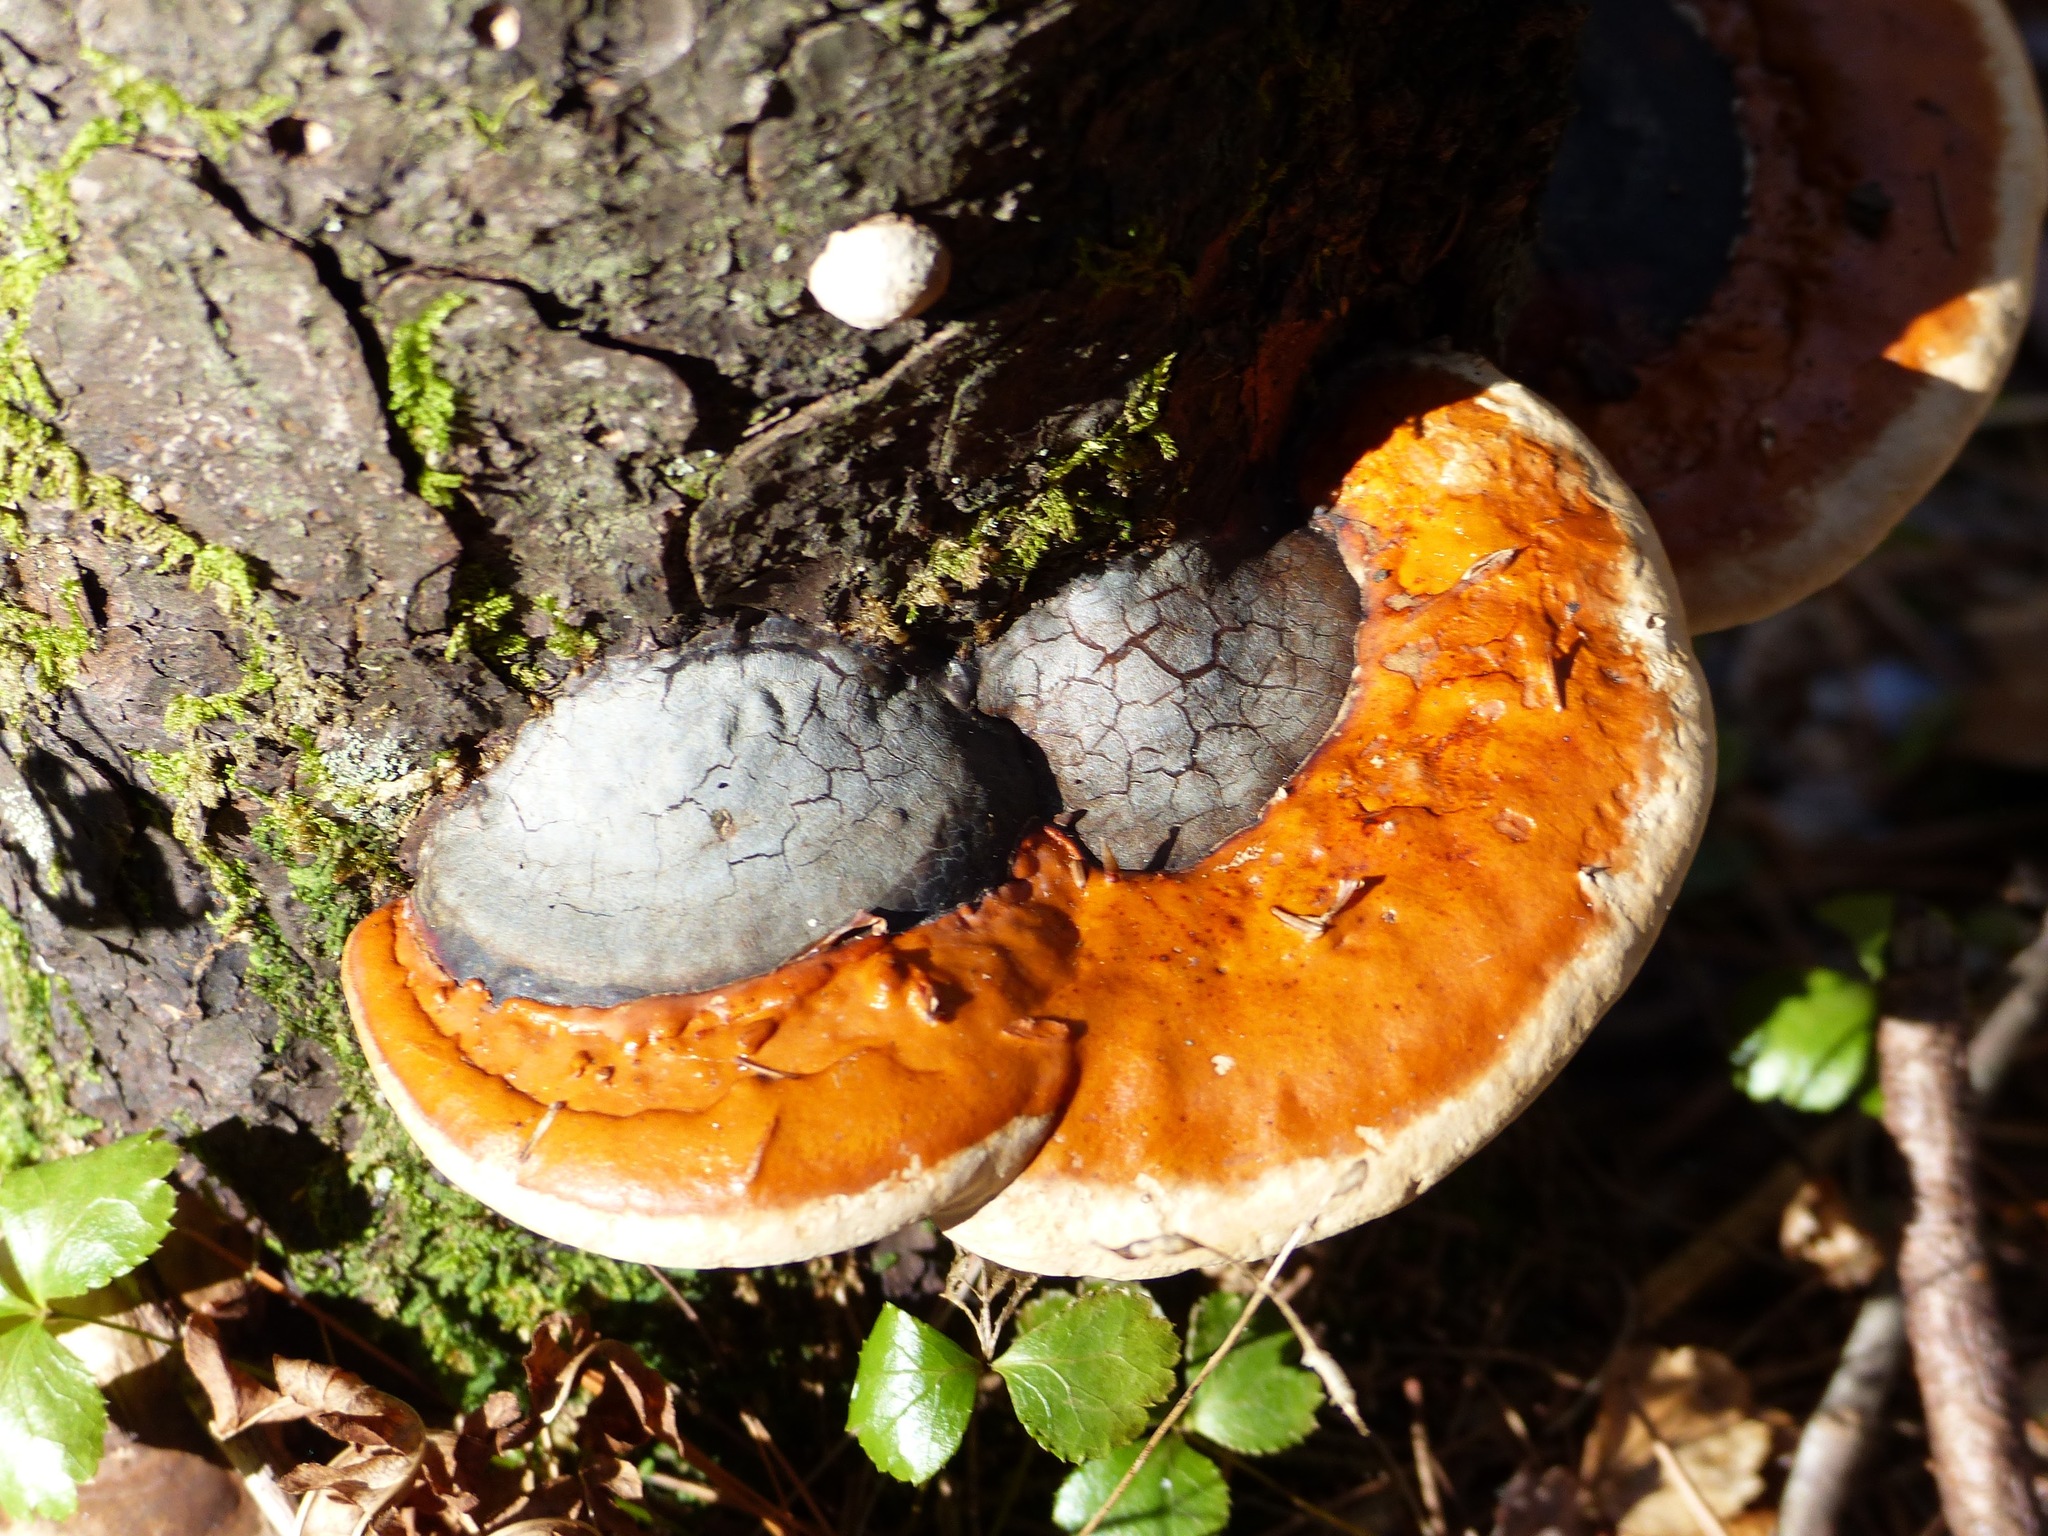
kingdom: Fungi
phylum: Basidiomycota
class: Agaricomycetes
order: Polyporales
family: Fomitopsidaceae
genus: Fomitopsis
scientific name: Fomitopsis mounceae
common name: Northern red belt
